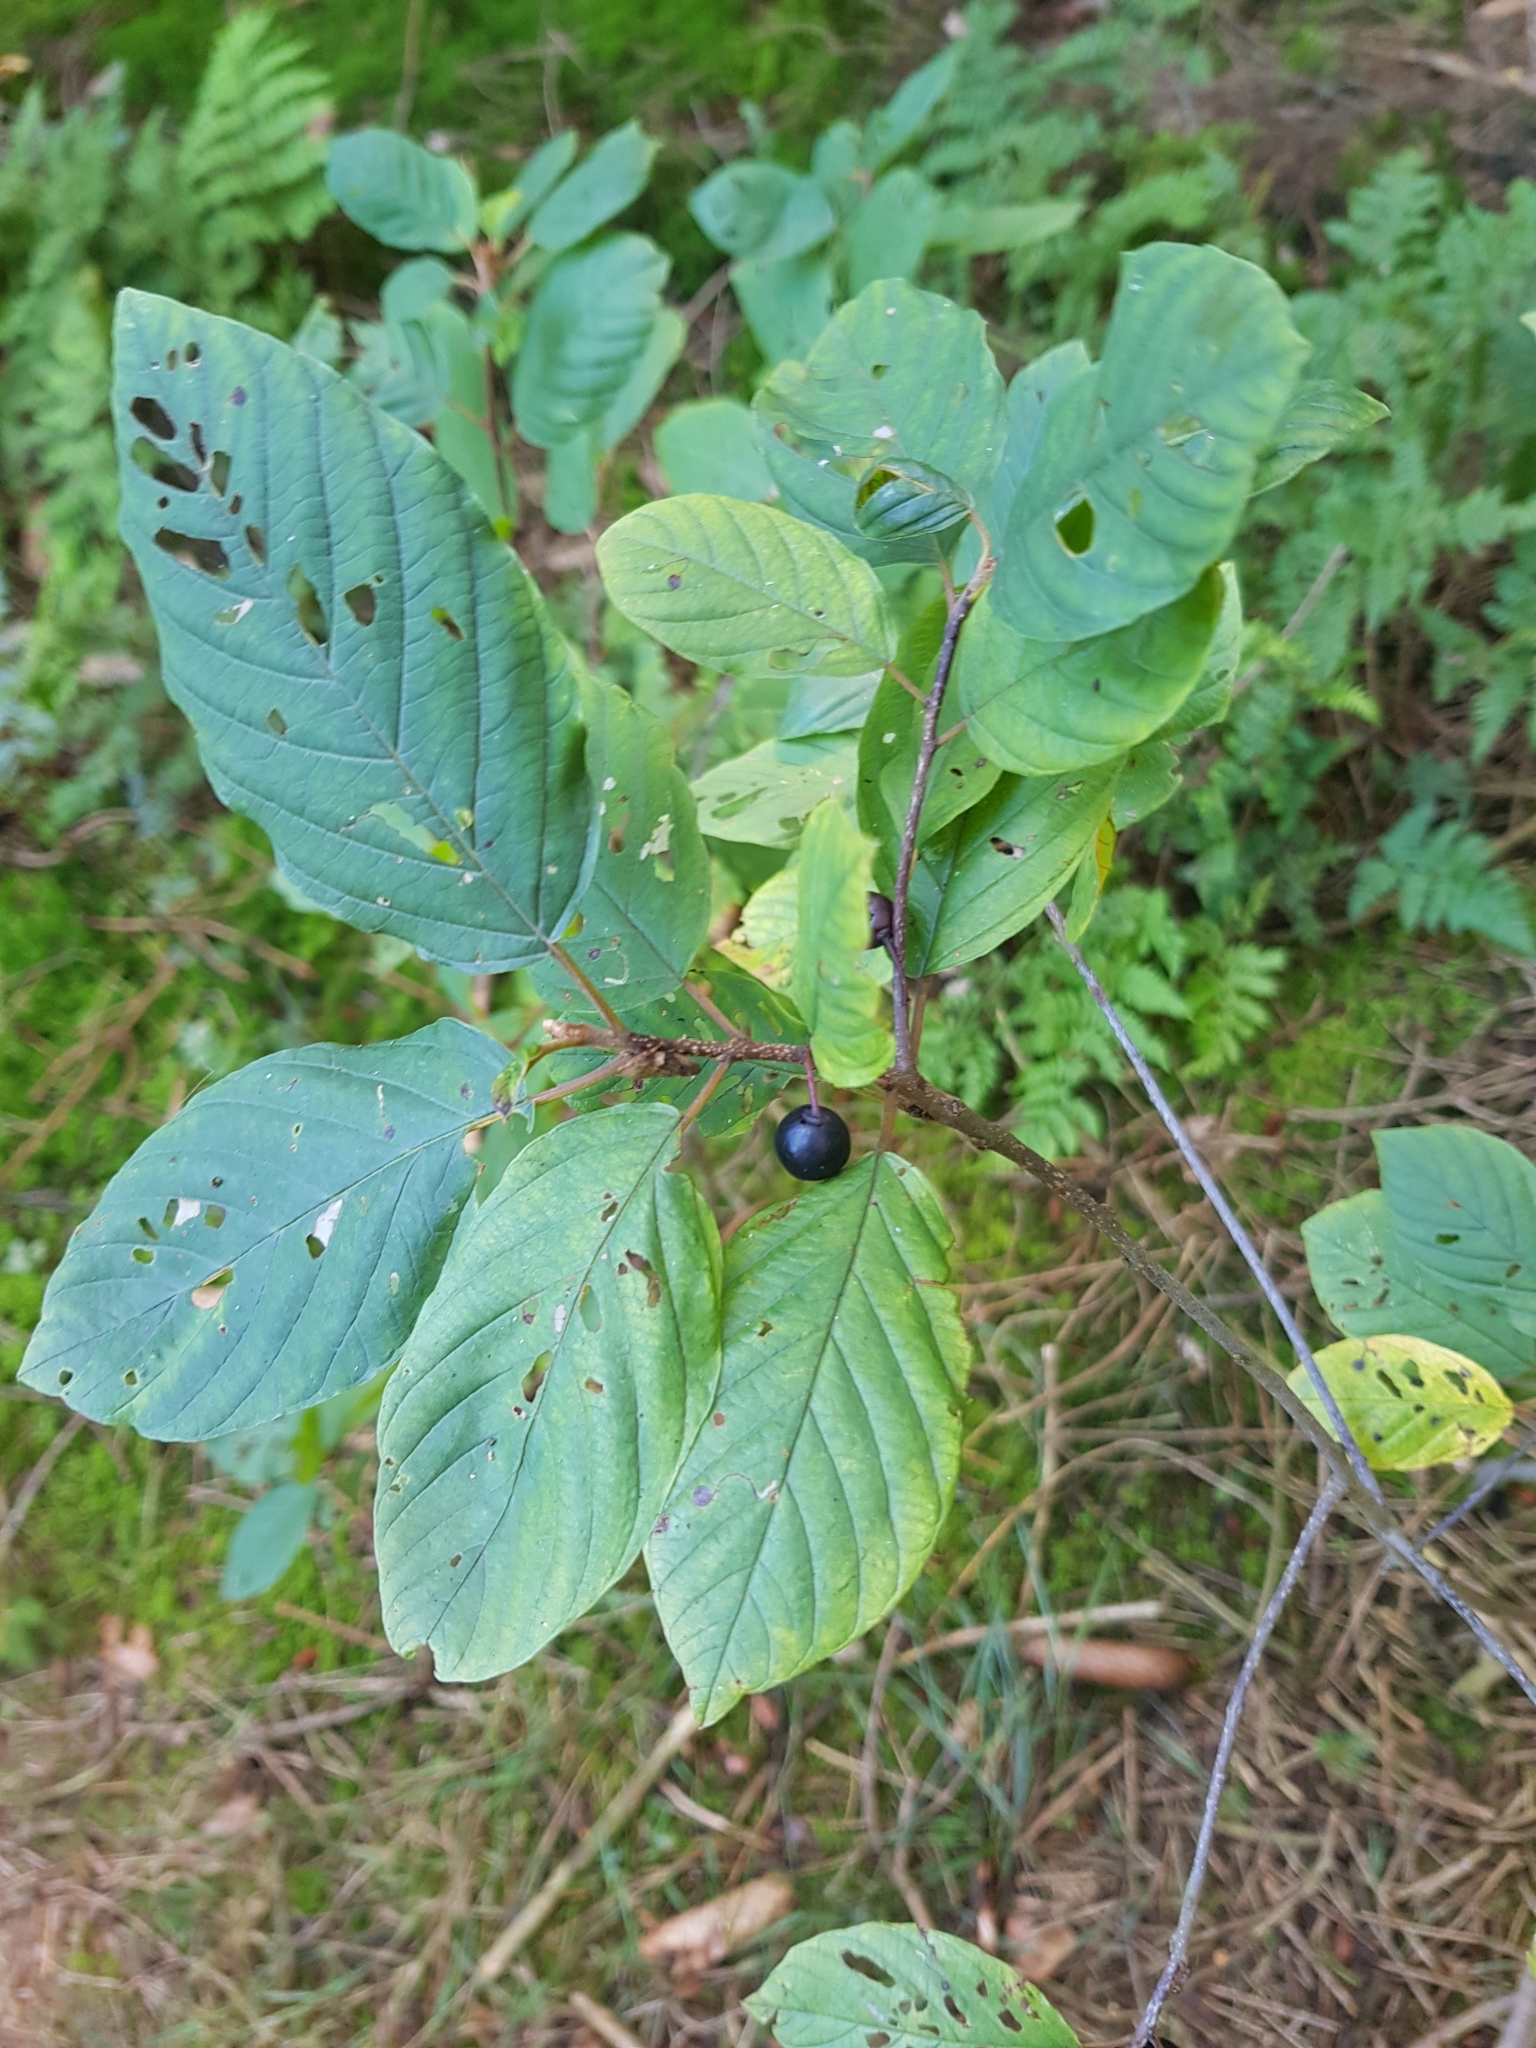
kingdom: Plantae
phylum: Tracheophyta
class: Magnoliopsida
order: Rosales
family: Rhamnaceae
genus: Frangula
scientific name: Frangula alnus
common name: Alder buckthorn
